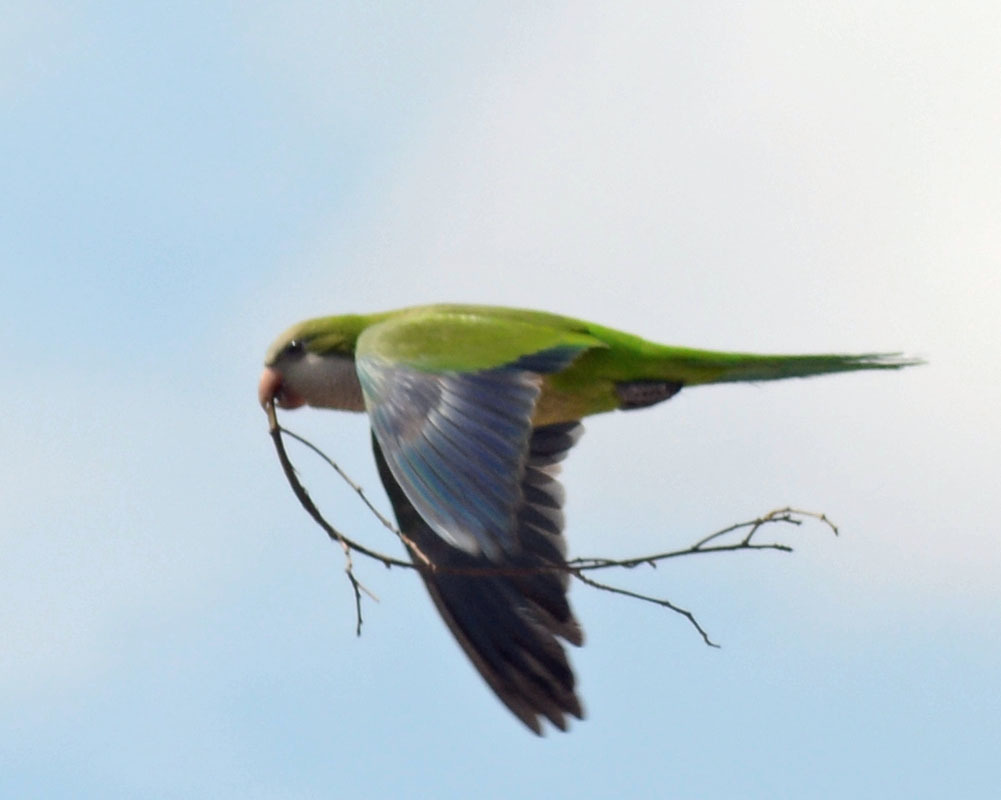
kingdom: Animalia
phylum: Chordata
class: Aves
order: Psittaciformes
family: Psittacidae
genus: Myiopsitta
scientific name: Myiopsitta monachus
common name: Monk parakeet
